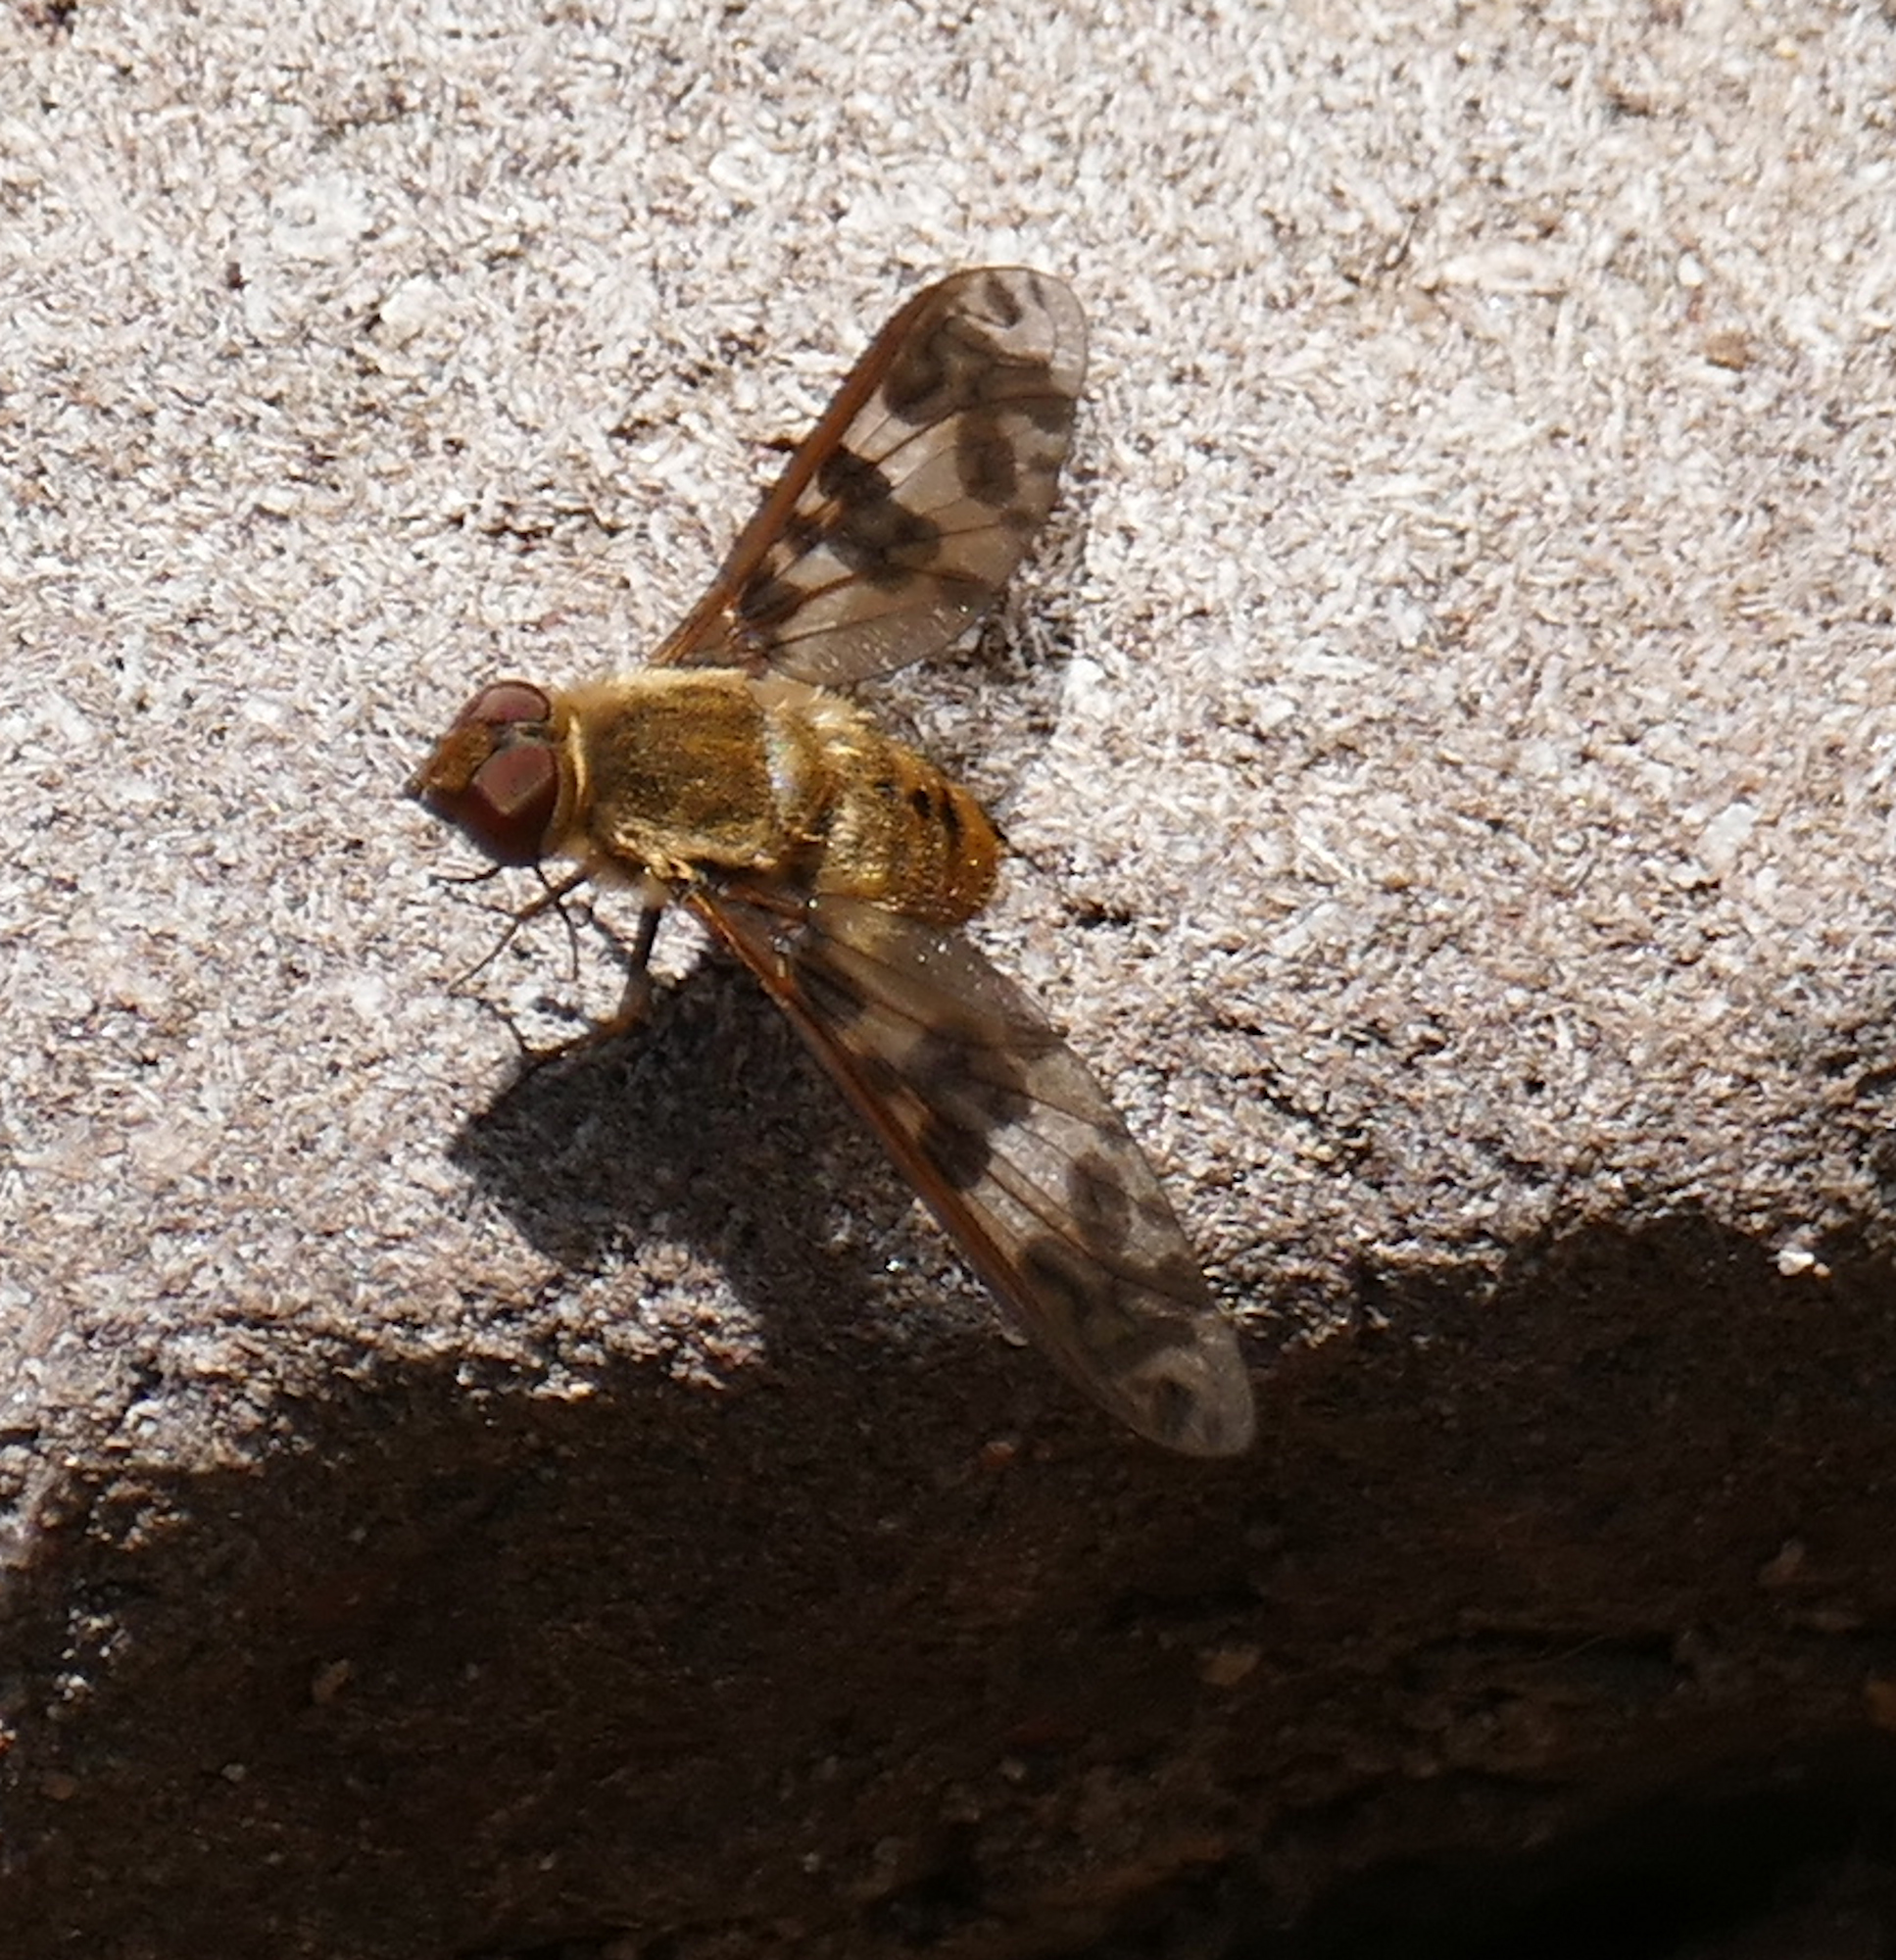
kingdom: Animalia
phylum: Arthropoda
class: Insecta
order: Diptera
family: Bombyliidae
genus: Dipalta
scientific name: Dipalta serpentina
